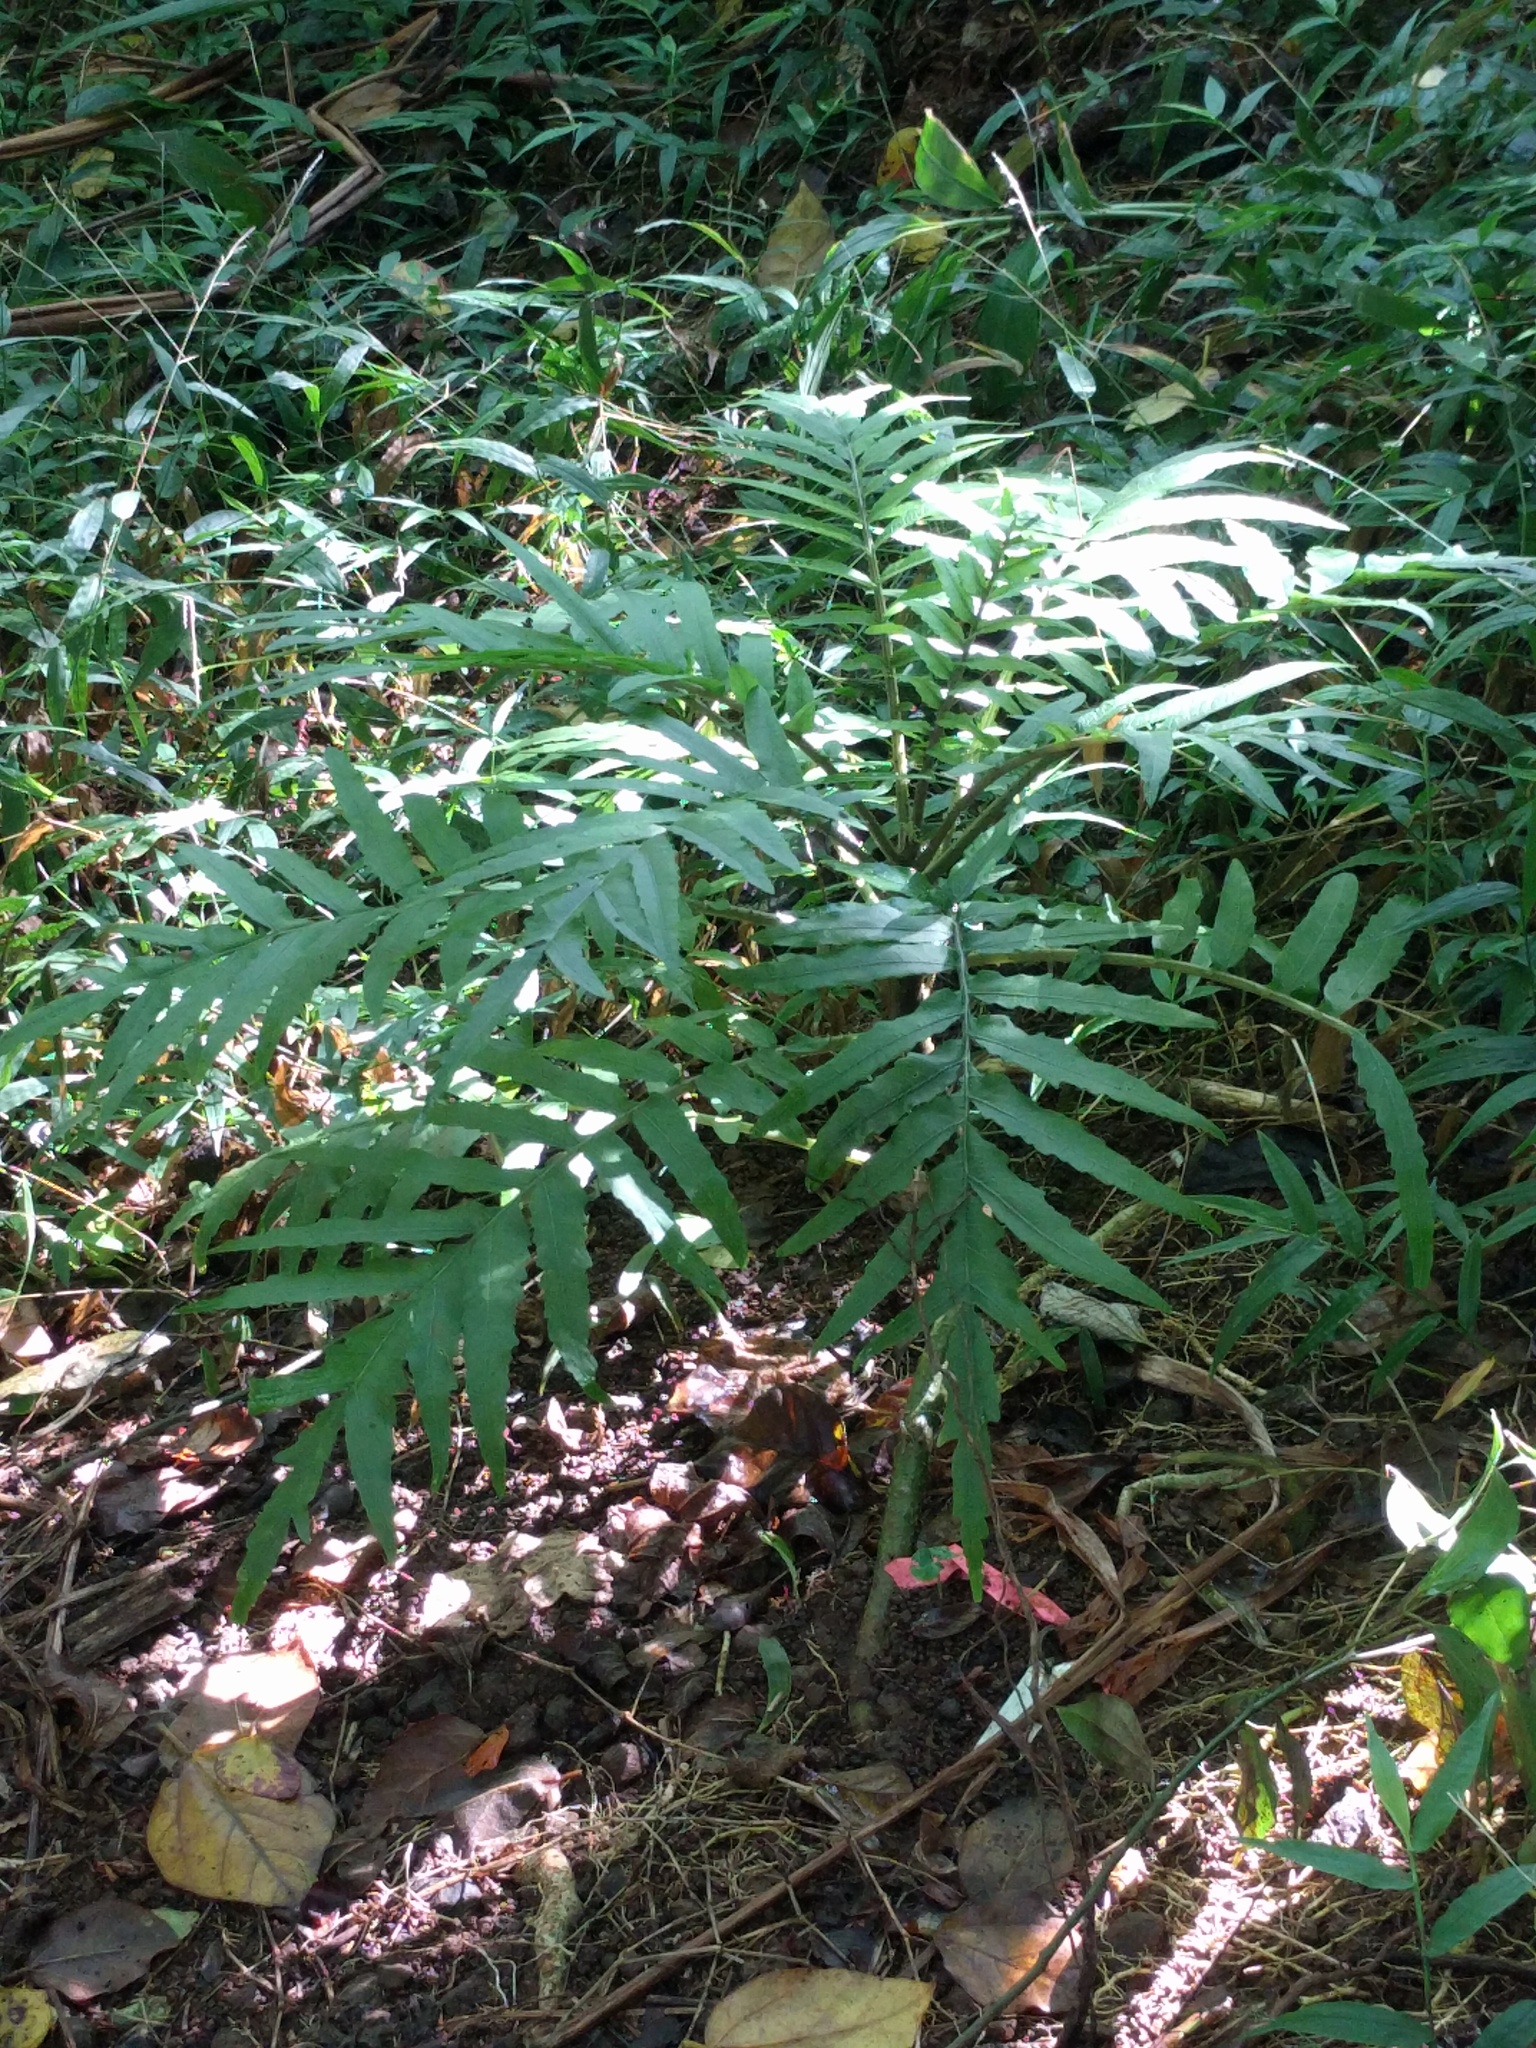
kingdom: Plantae
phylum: Tracheophyta
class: Magnoliopsida
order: Asterales
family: Campanulaceae
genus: Cyanea
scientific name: Cyanea grimesiana
